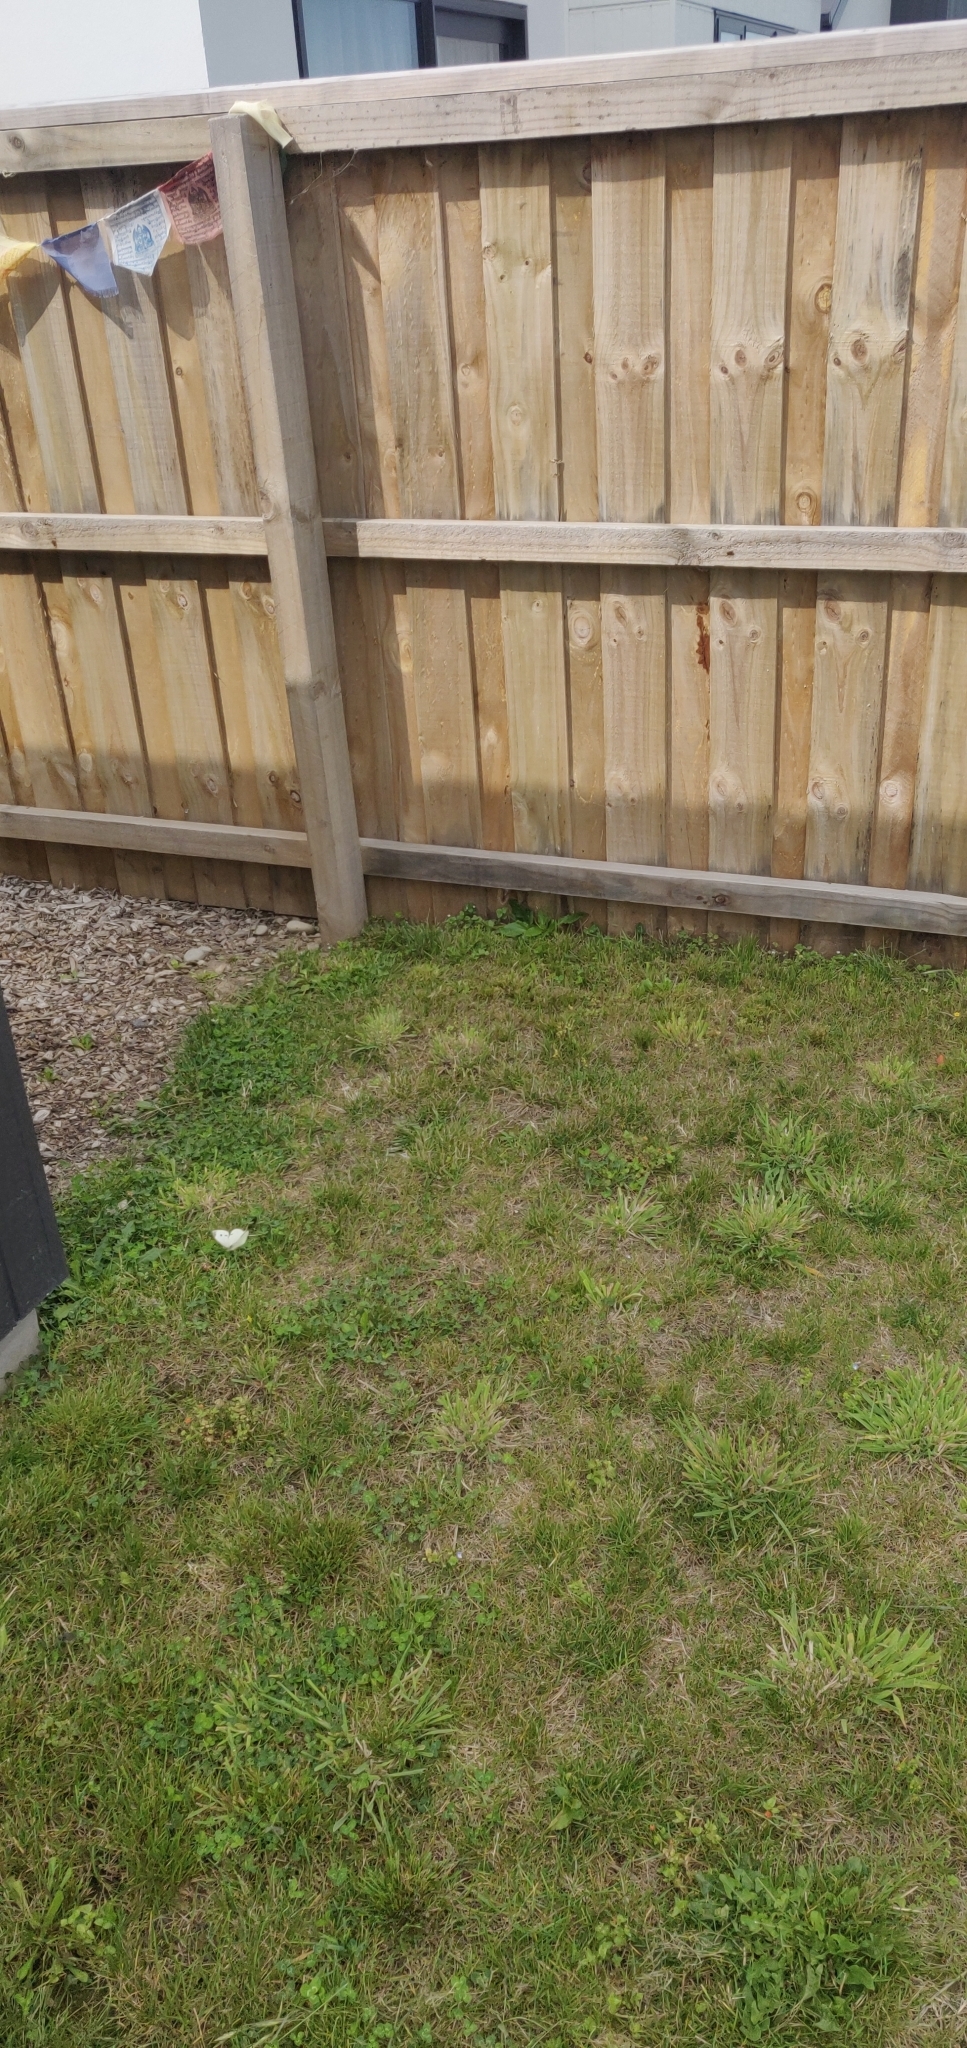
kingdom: Animalia
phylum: Arthropoda
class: Insecta
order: Lepidoptera
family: Pieridae
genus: Pieris
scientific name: Pieris rapae
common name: Small white
